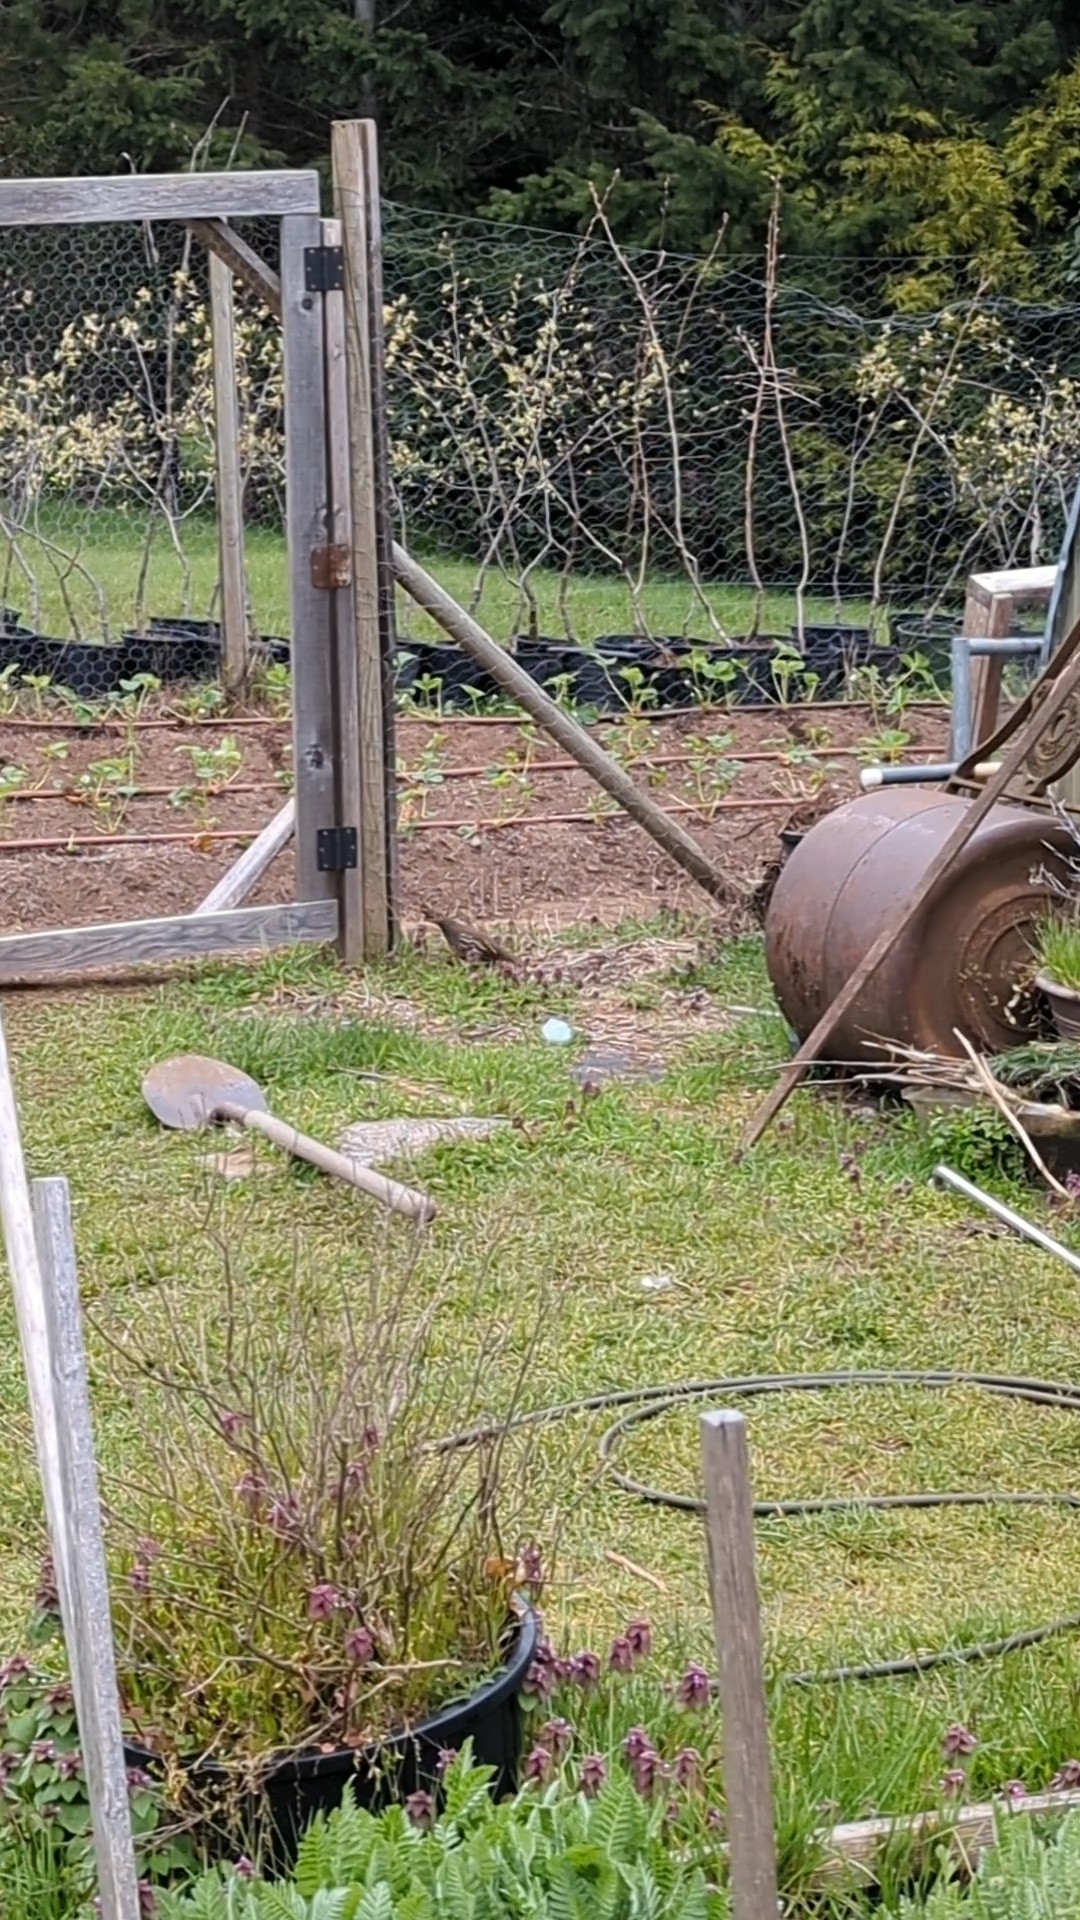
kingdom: Animalia
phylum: Chordata
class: Aves
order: Galliformes
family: Odontophoridae
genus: Callipepla
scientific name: Callipepla californica
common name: California quail
